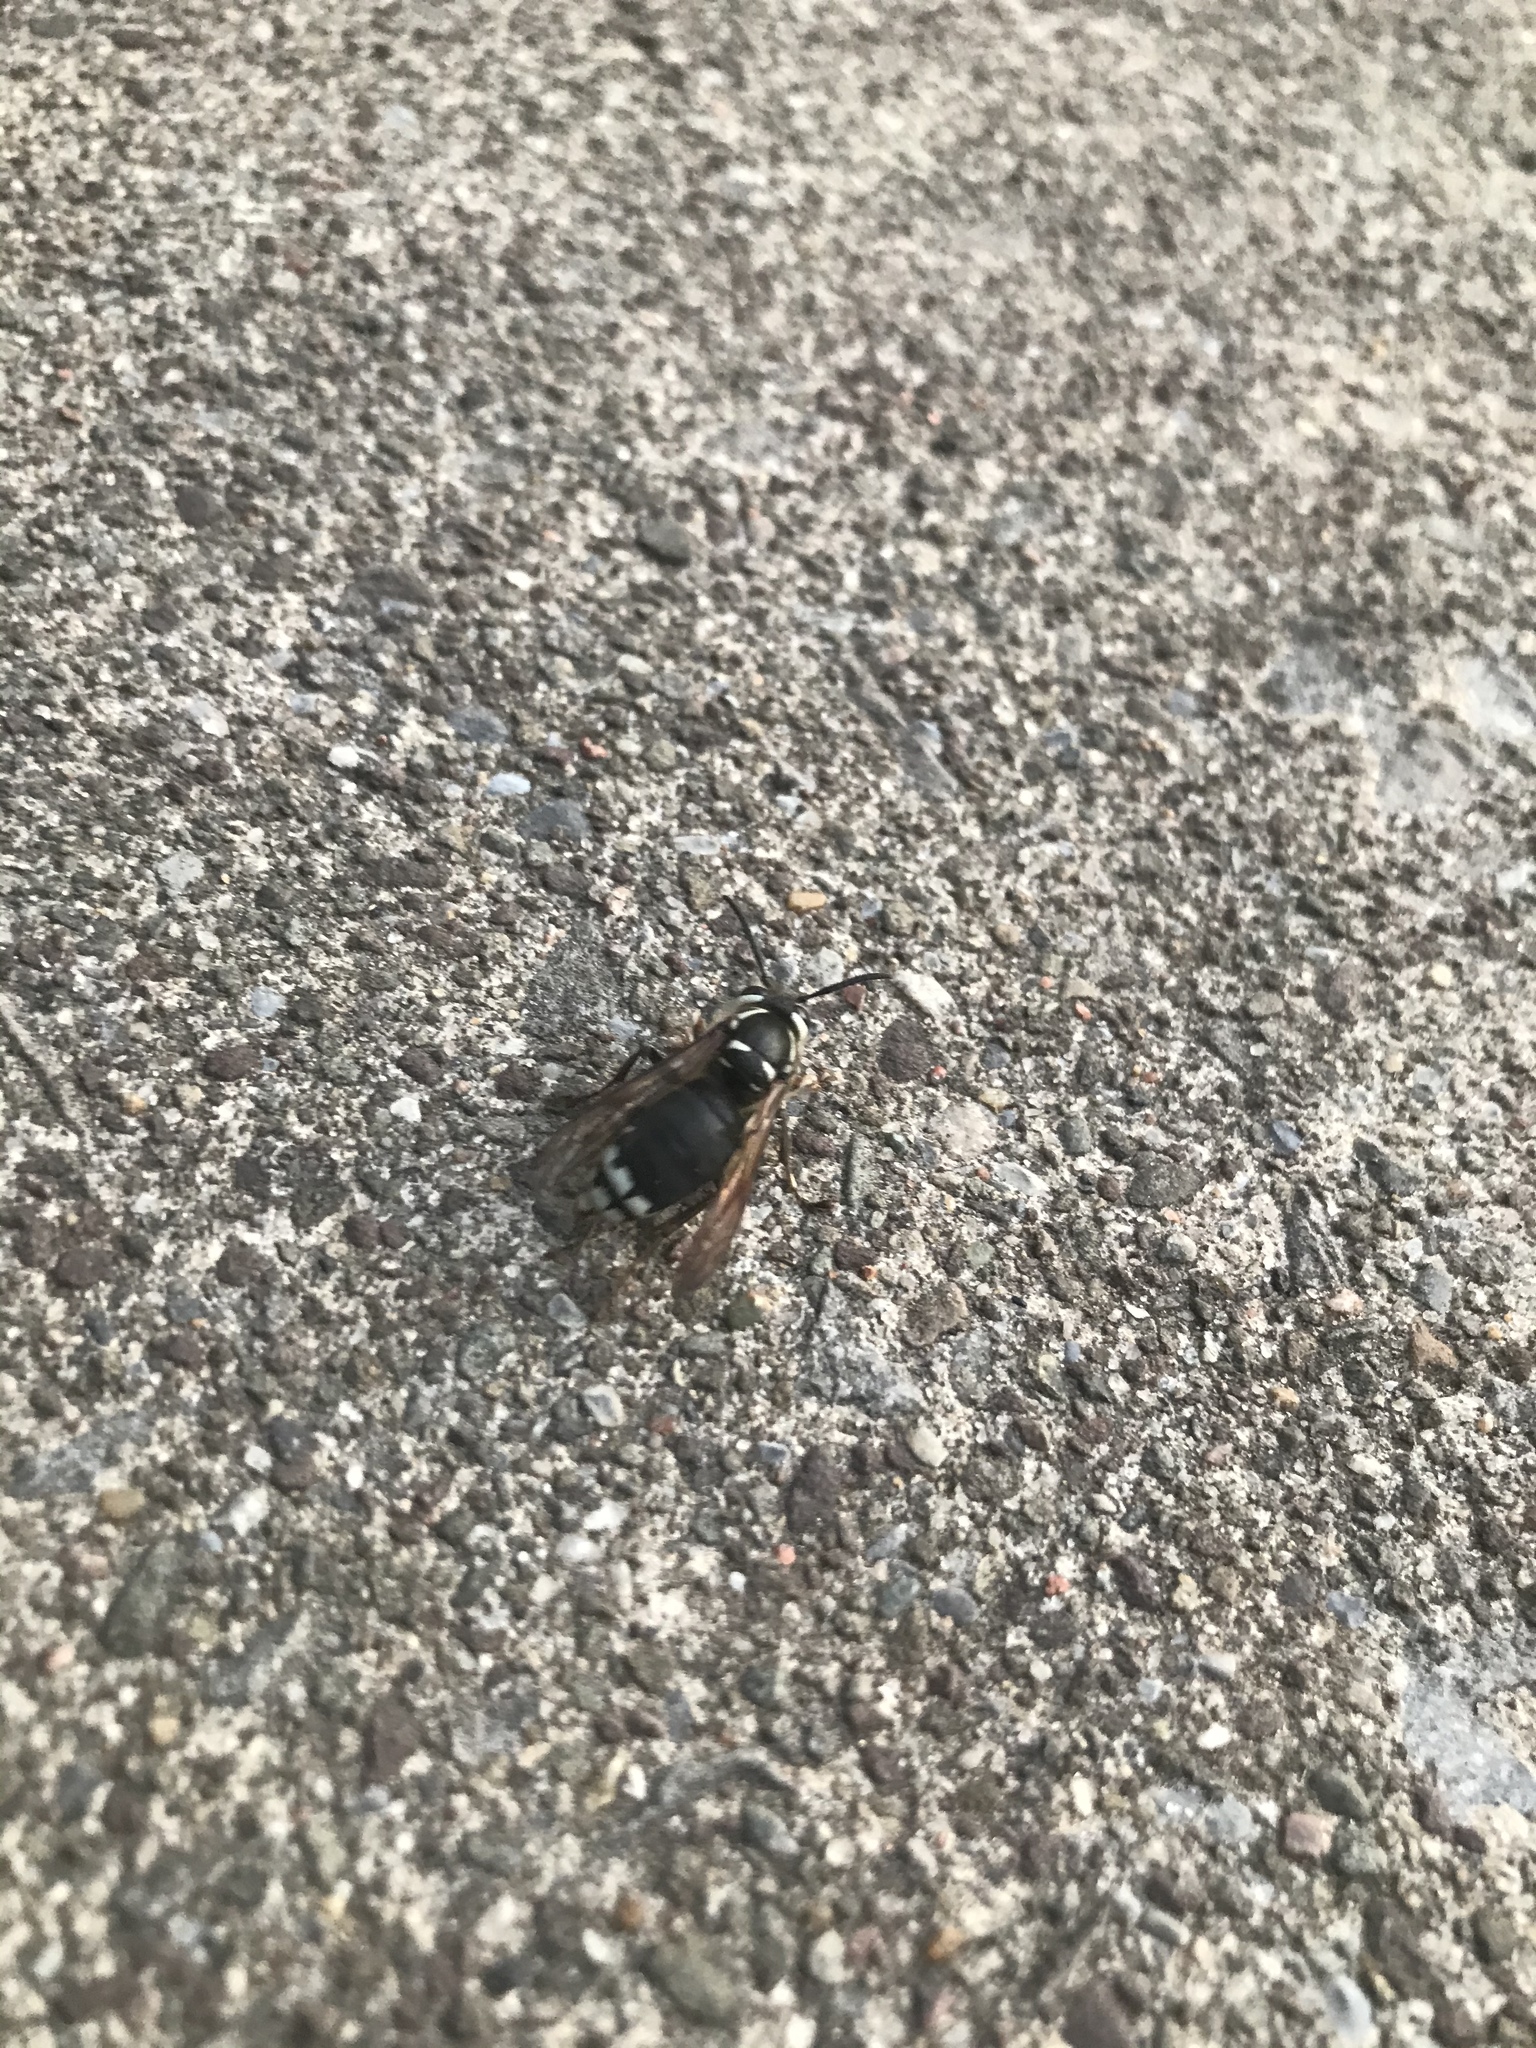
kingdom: Animalia
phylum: Arthropoda
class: Insecta
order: Hymenoptera
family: Vespidae
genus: Dolichovespula
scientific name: Dolichovespula maculata
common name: Bald-faced hornet
